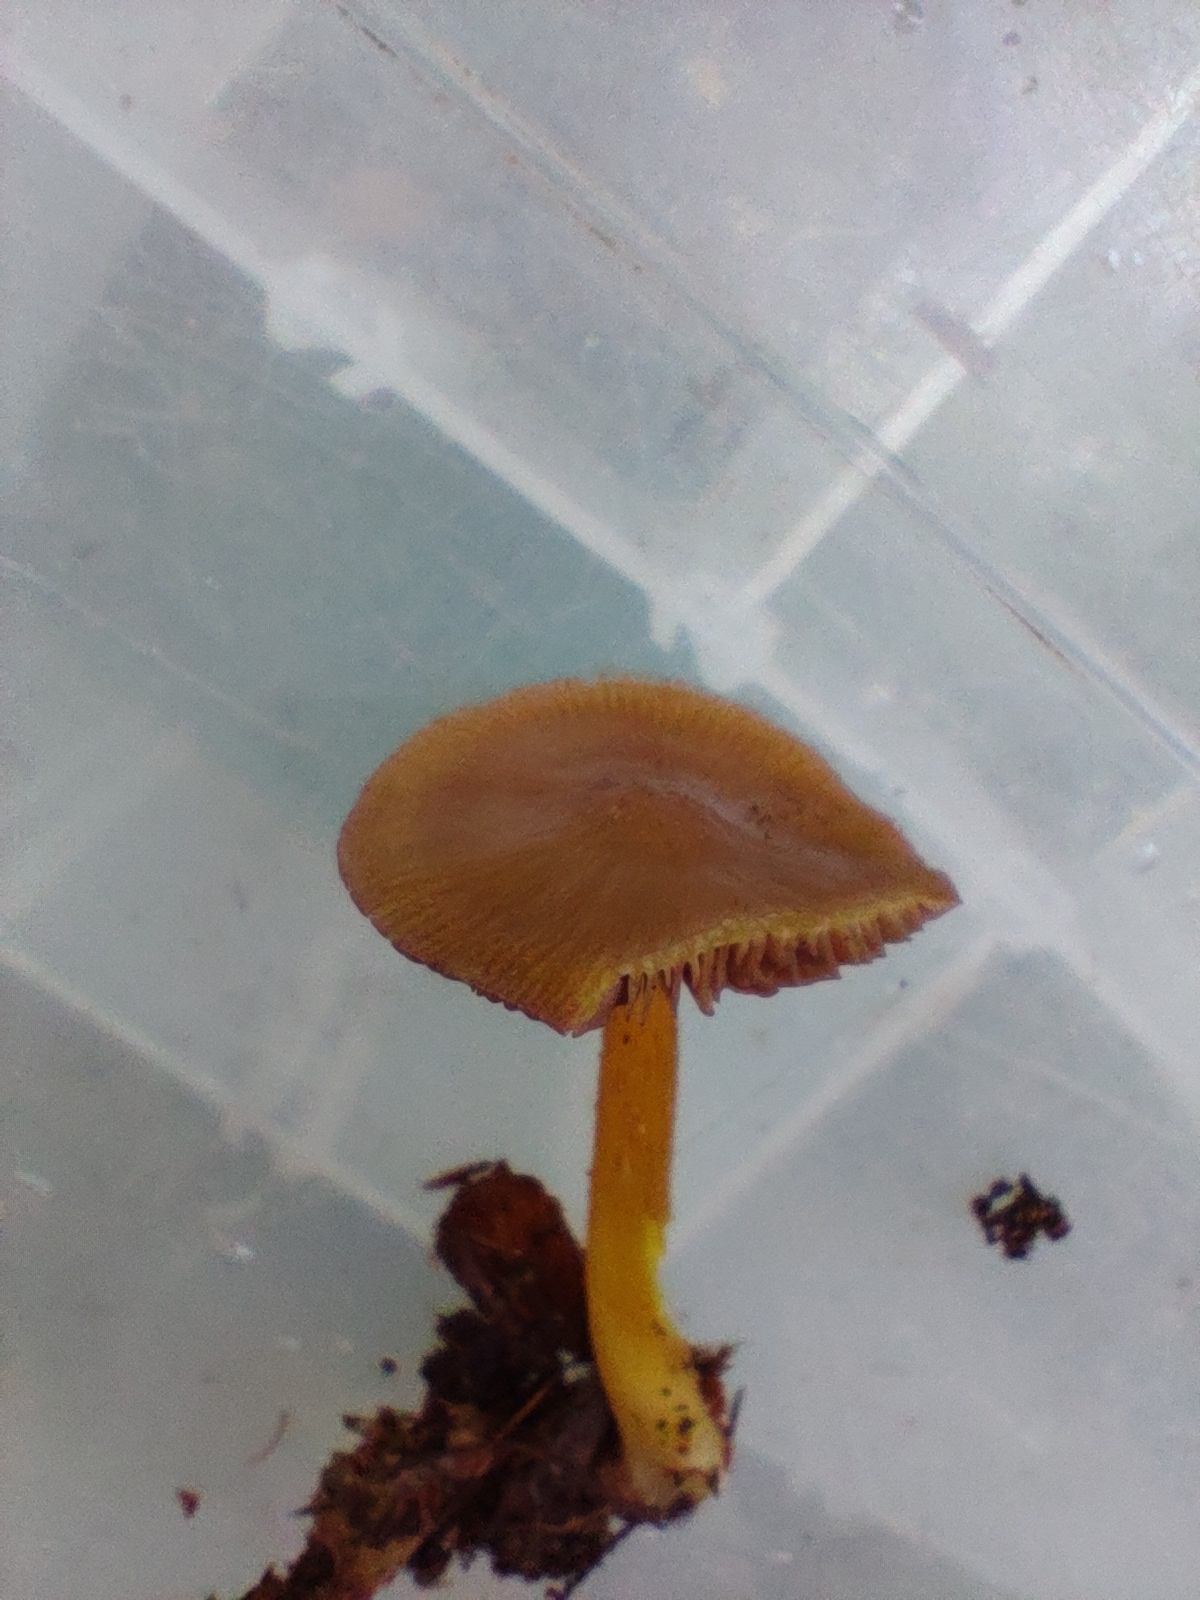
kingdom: Fungi
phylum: Basidiomycota
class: Agaricomycetes
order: Agaricales
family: Mycenaceae
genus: Mycena
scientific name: Mycena denticulata
